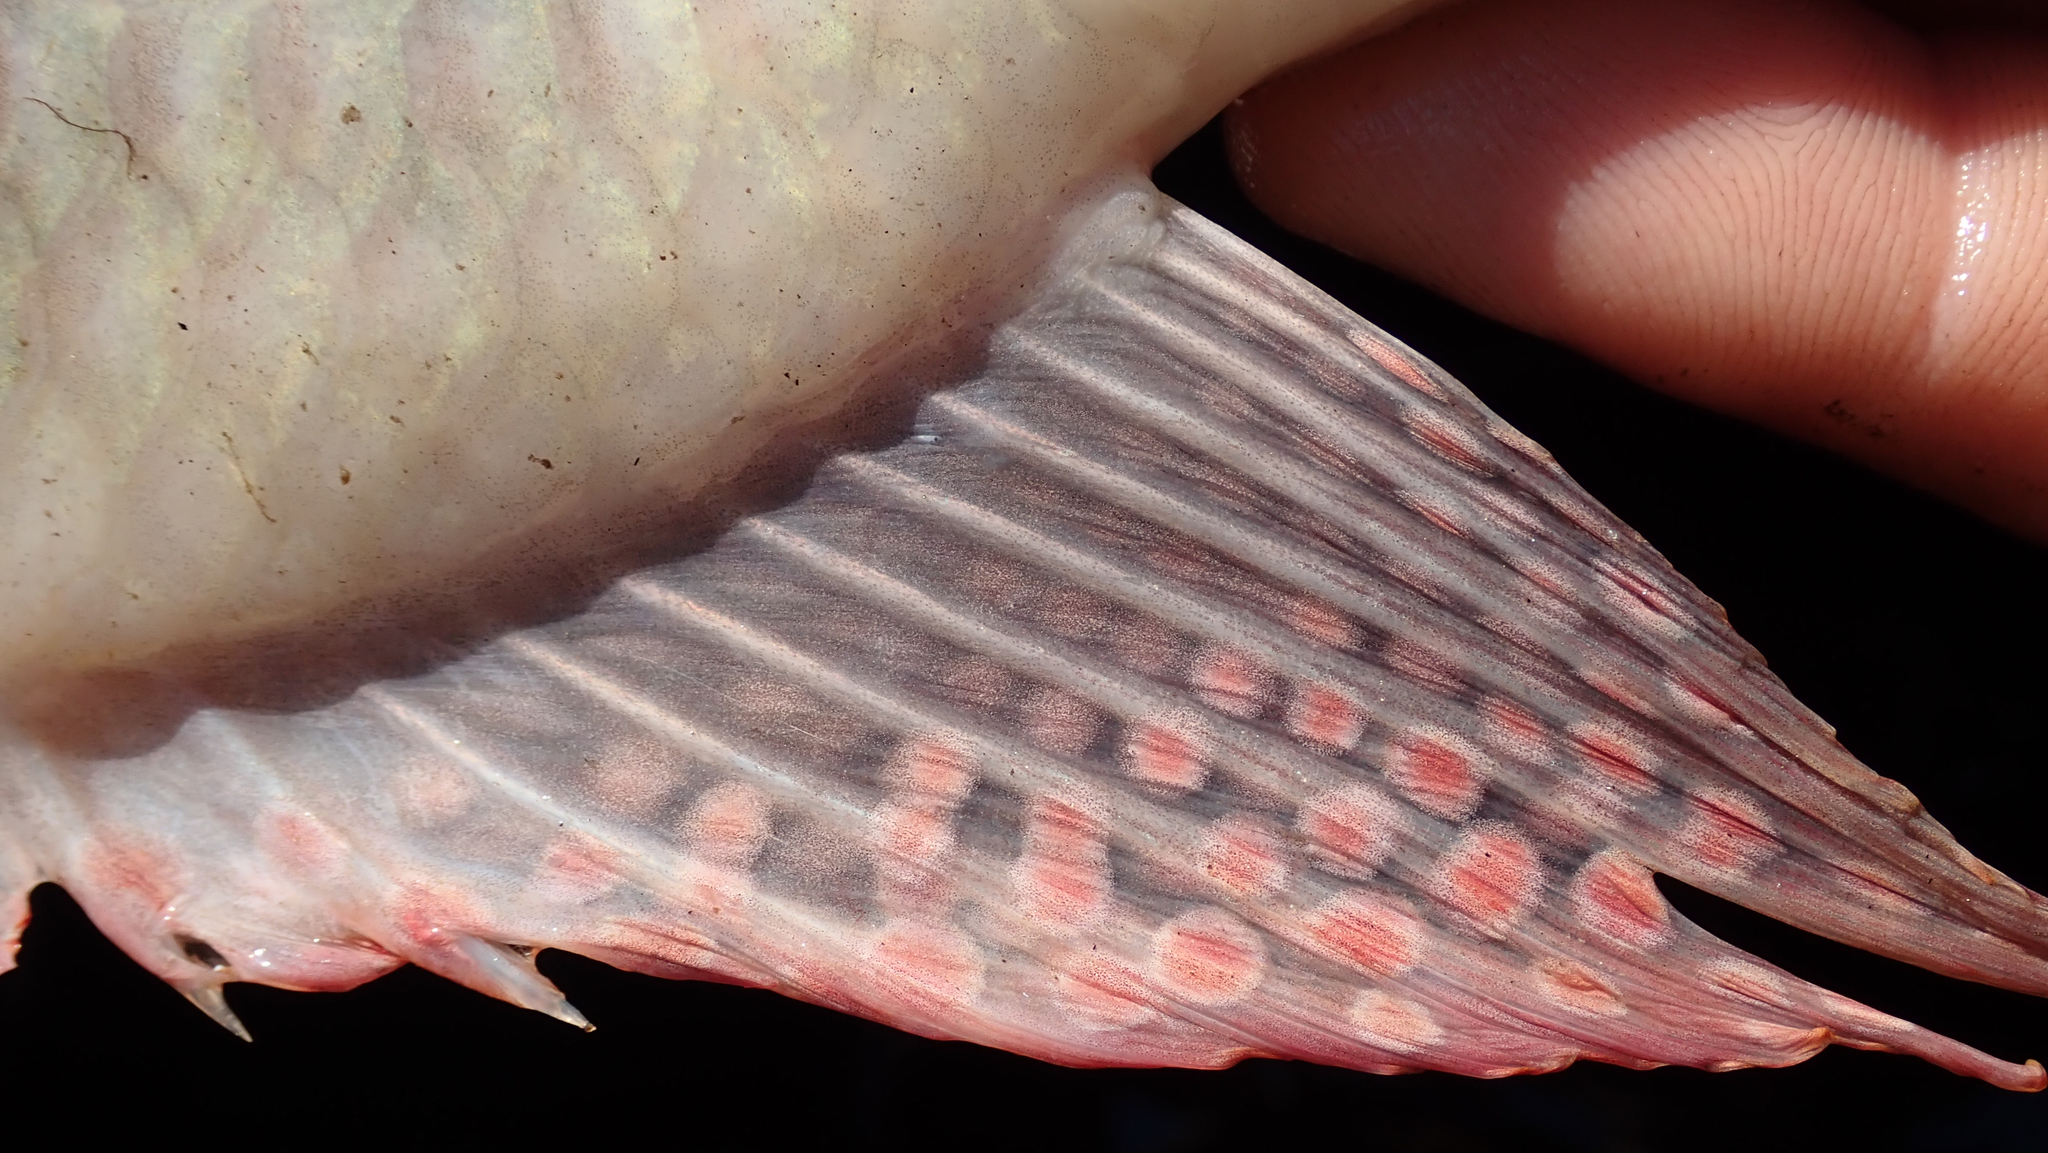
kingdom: Animalia
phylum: Chordata
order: Perciformes
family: Cichlidae
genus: Sargochromis
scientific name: Sargochromis giardi
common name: Pink happy
